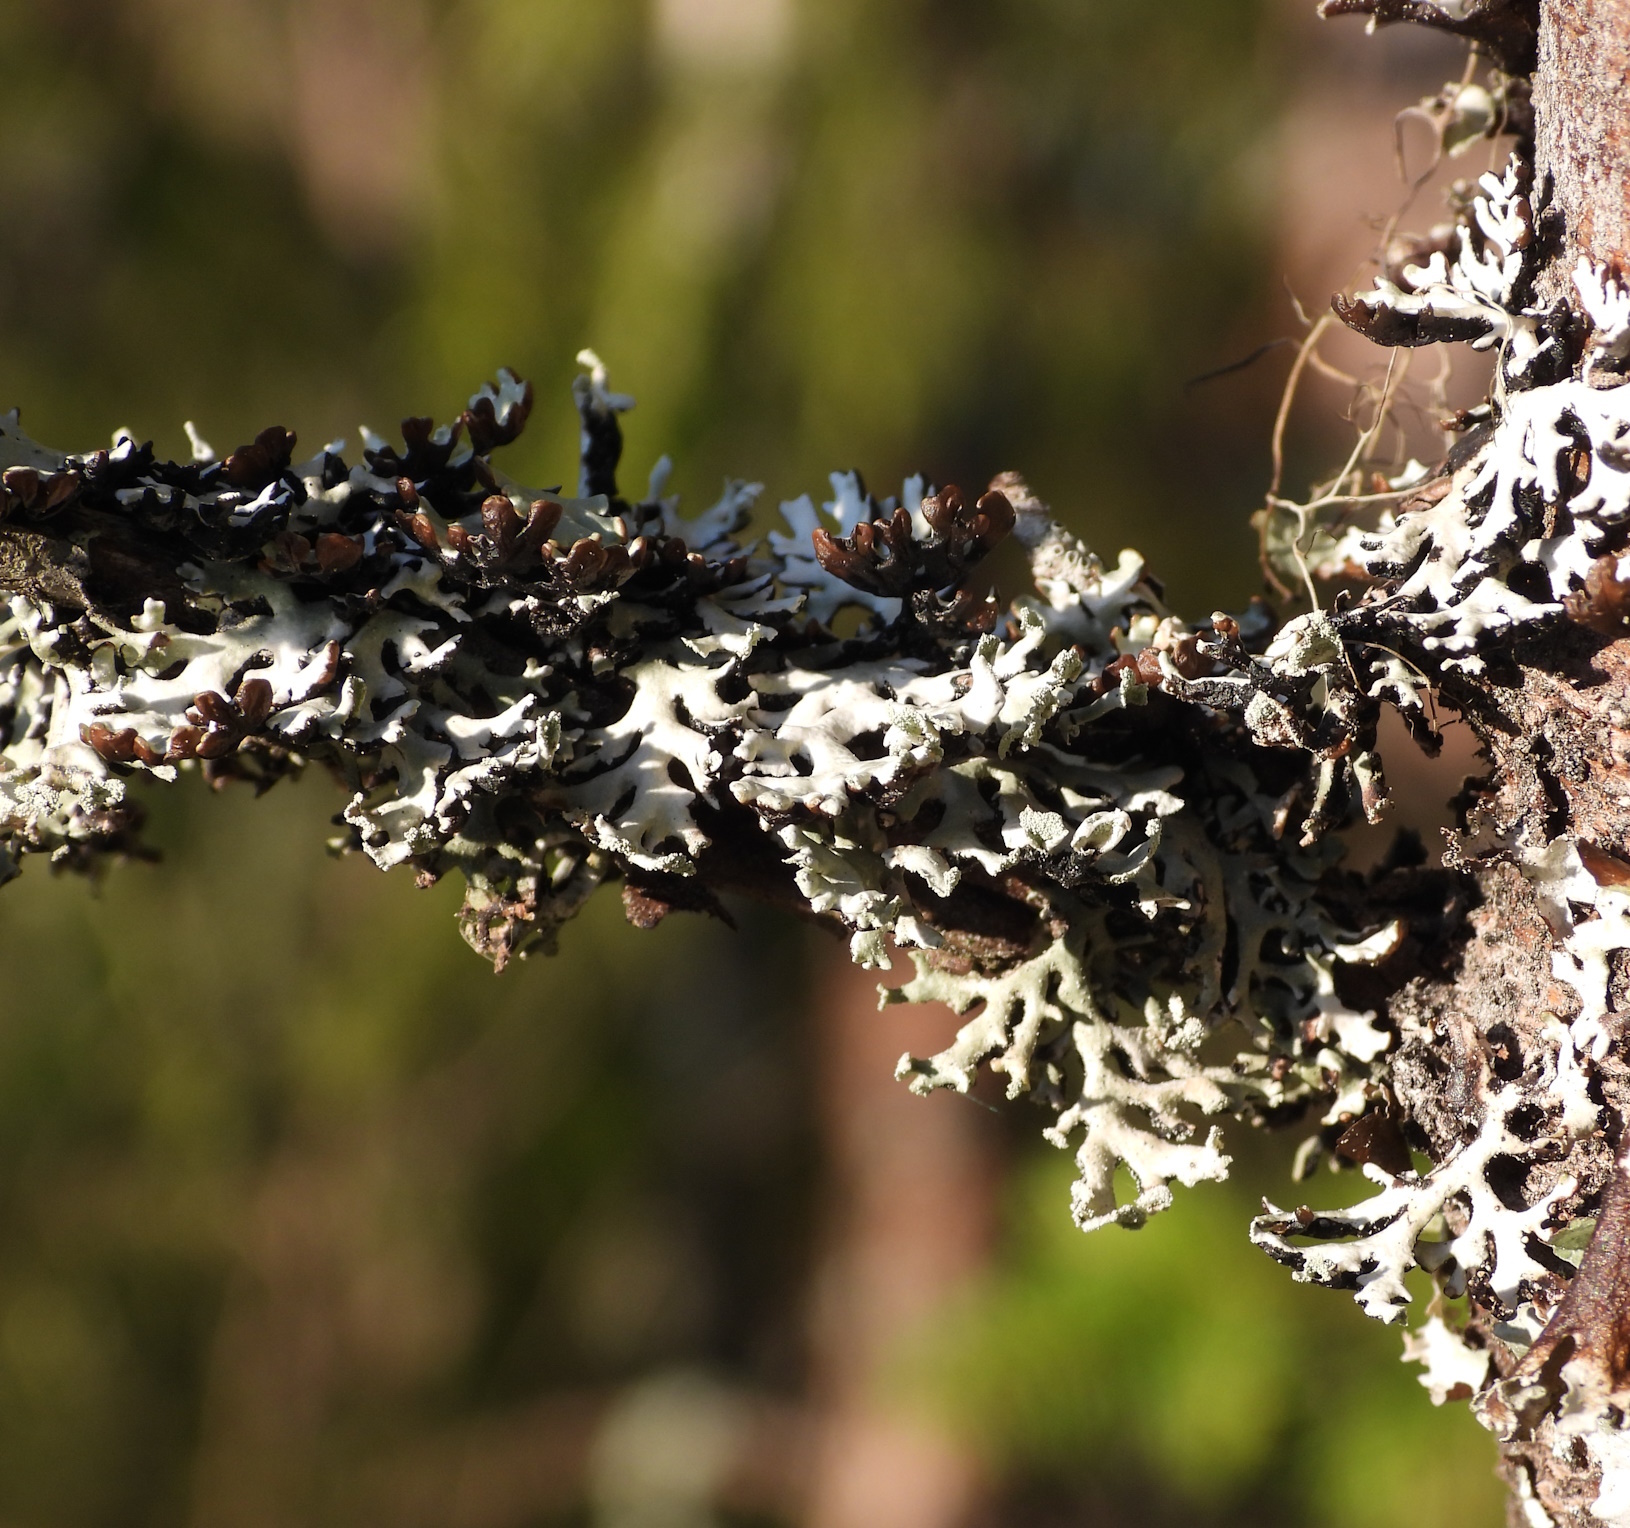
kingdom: Fungi
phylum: Ascomycota
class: Lecanoromycetes
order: Lecanorales
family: Parmeliaceae
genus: Hypogymnia
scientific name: Hypogymnia physodes
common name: Dark crottle
